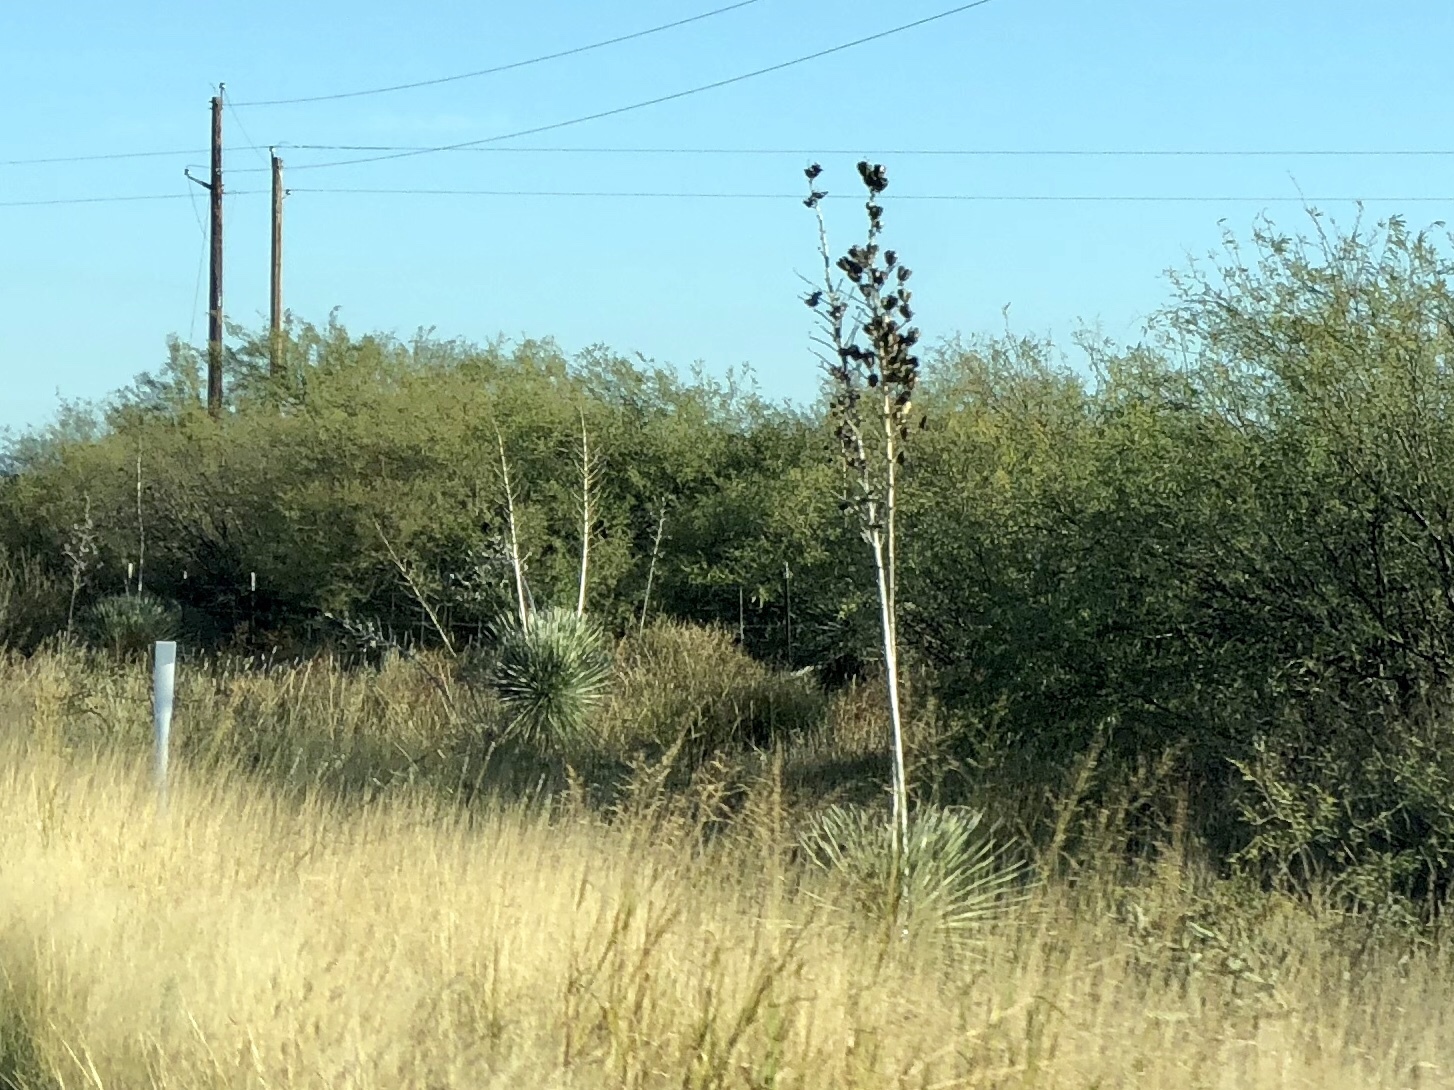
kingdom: Plantae
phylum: Tracheophyta
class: Liliopsida
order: Asparagales
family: Asparagaceae
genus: Yucca
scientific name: Yucca elata
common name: Palmella
